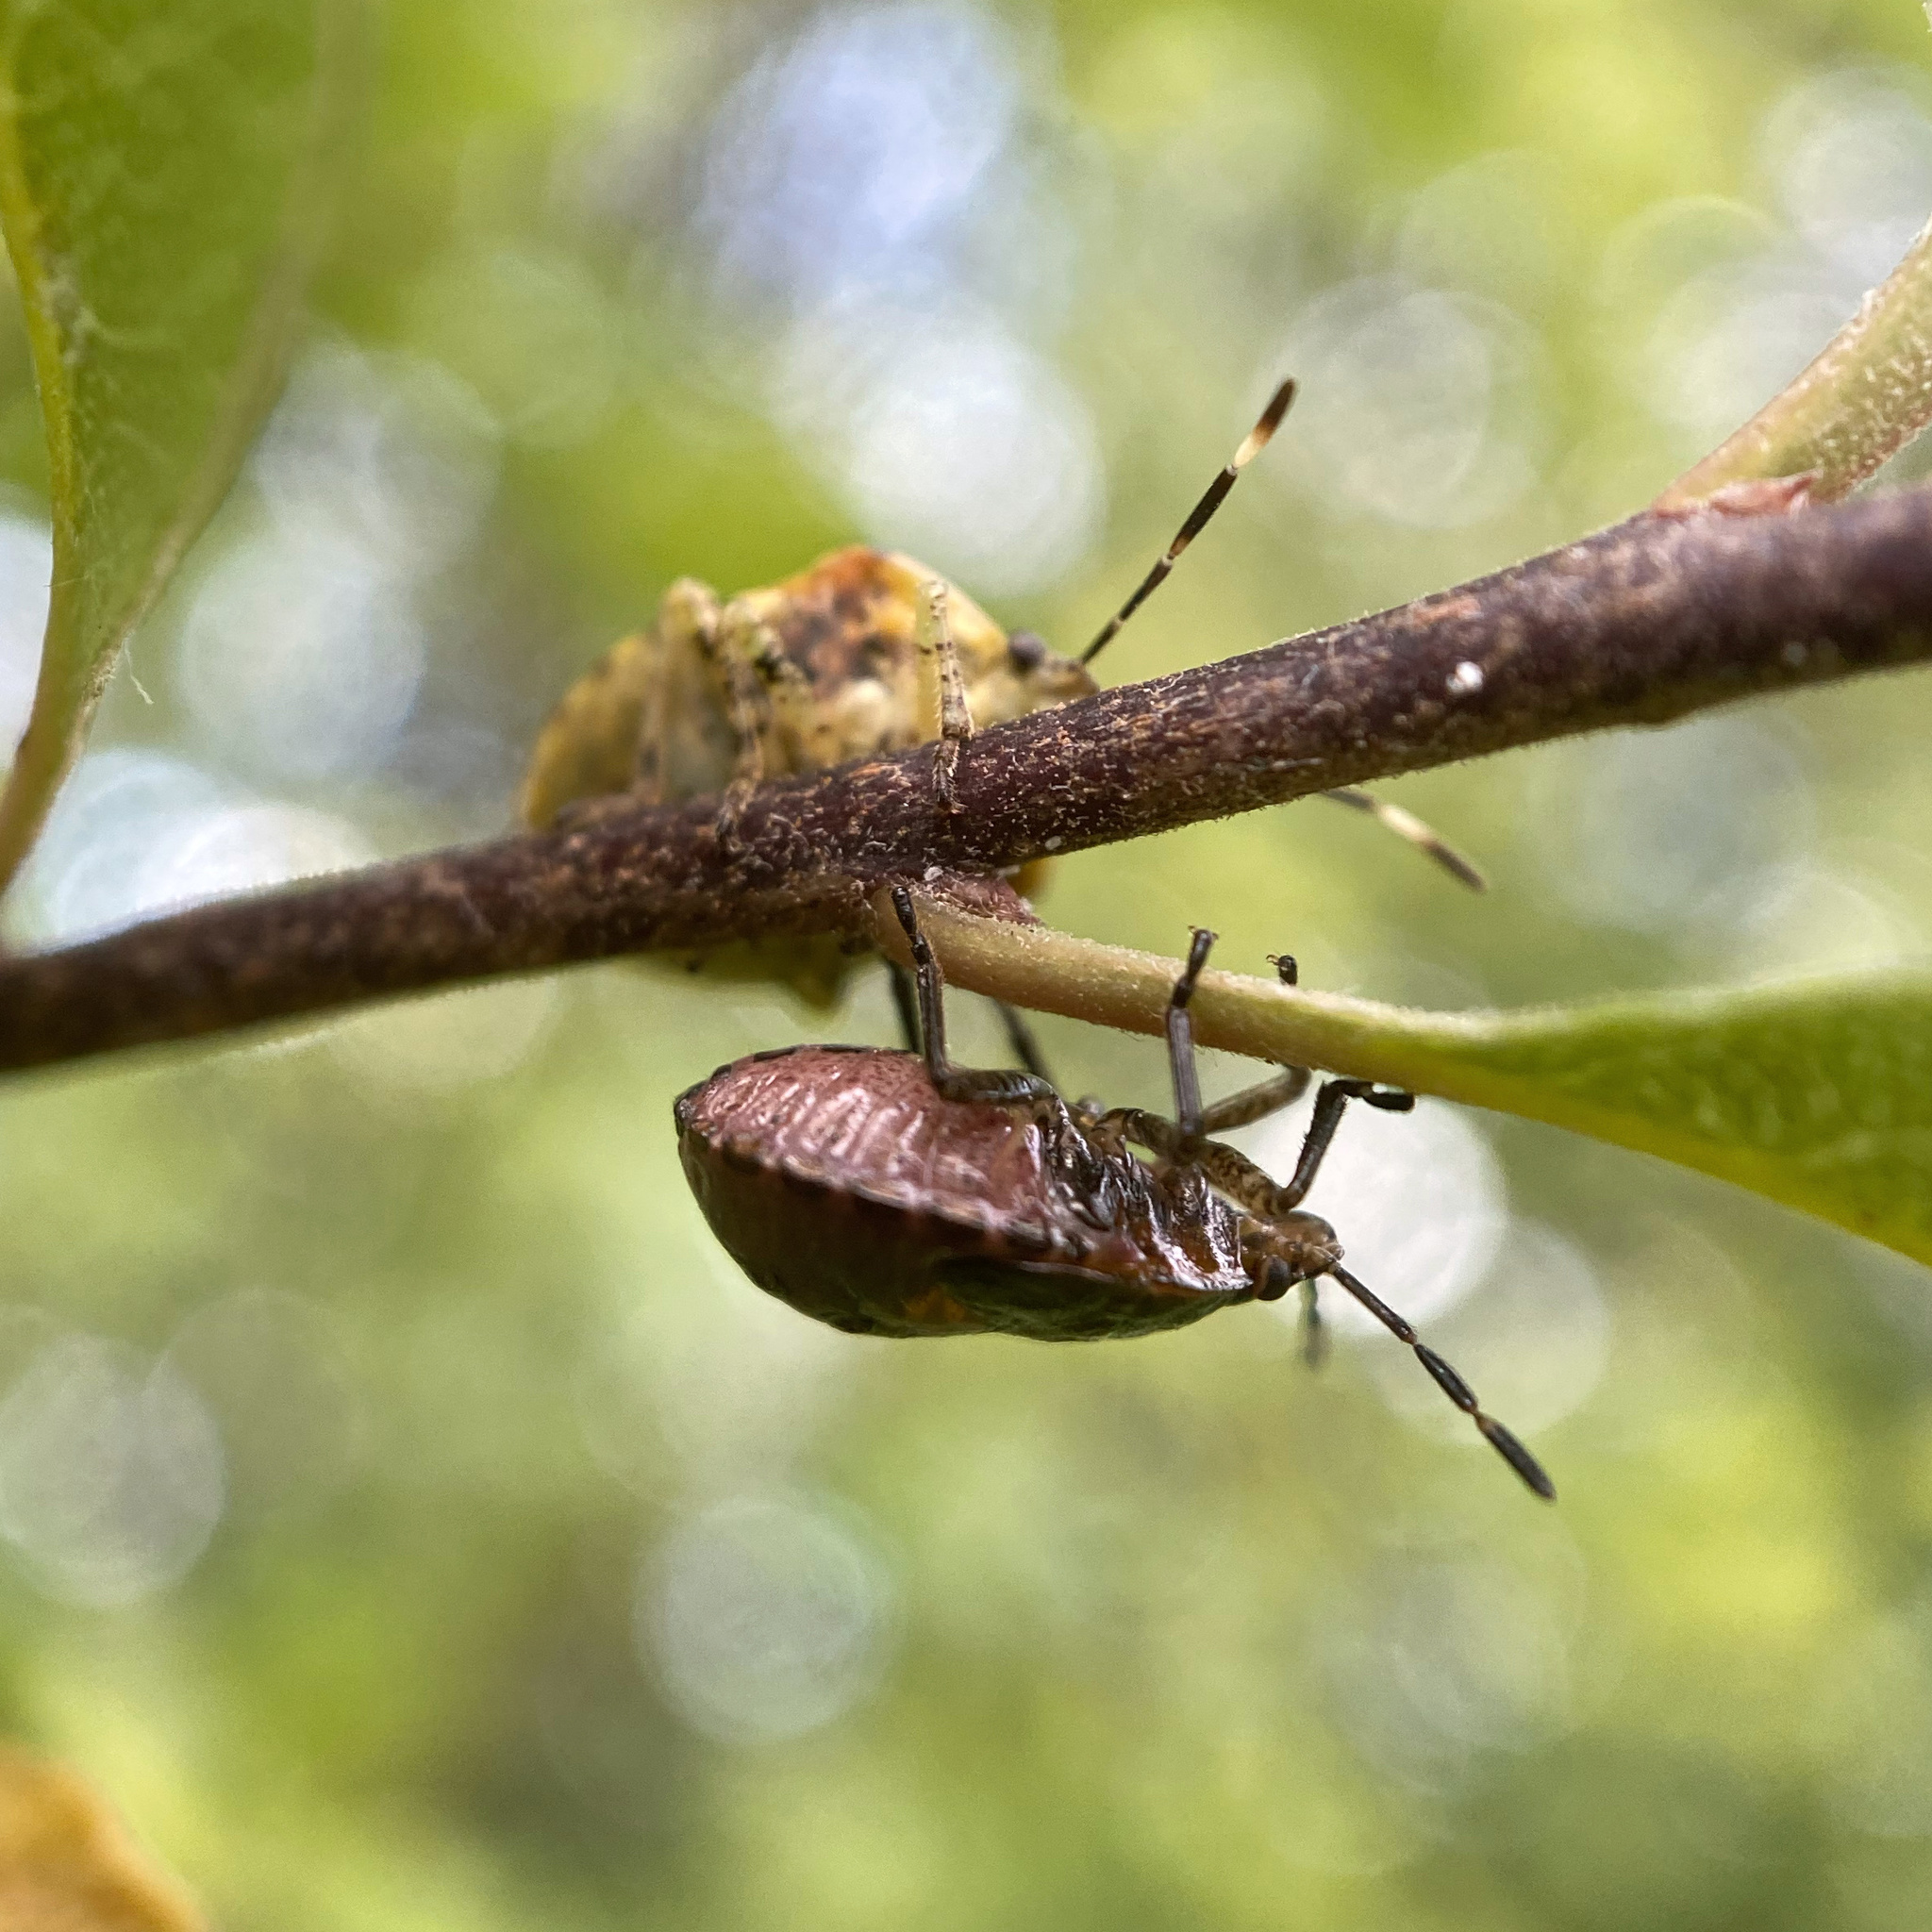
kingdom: Animalia
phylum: Arthropoda
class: Insecta
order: Hemiptera
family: Pentatomidae
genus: Monteithiella
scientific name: Monteithiella
